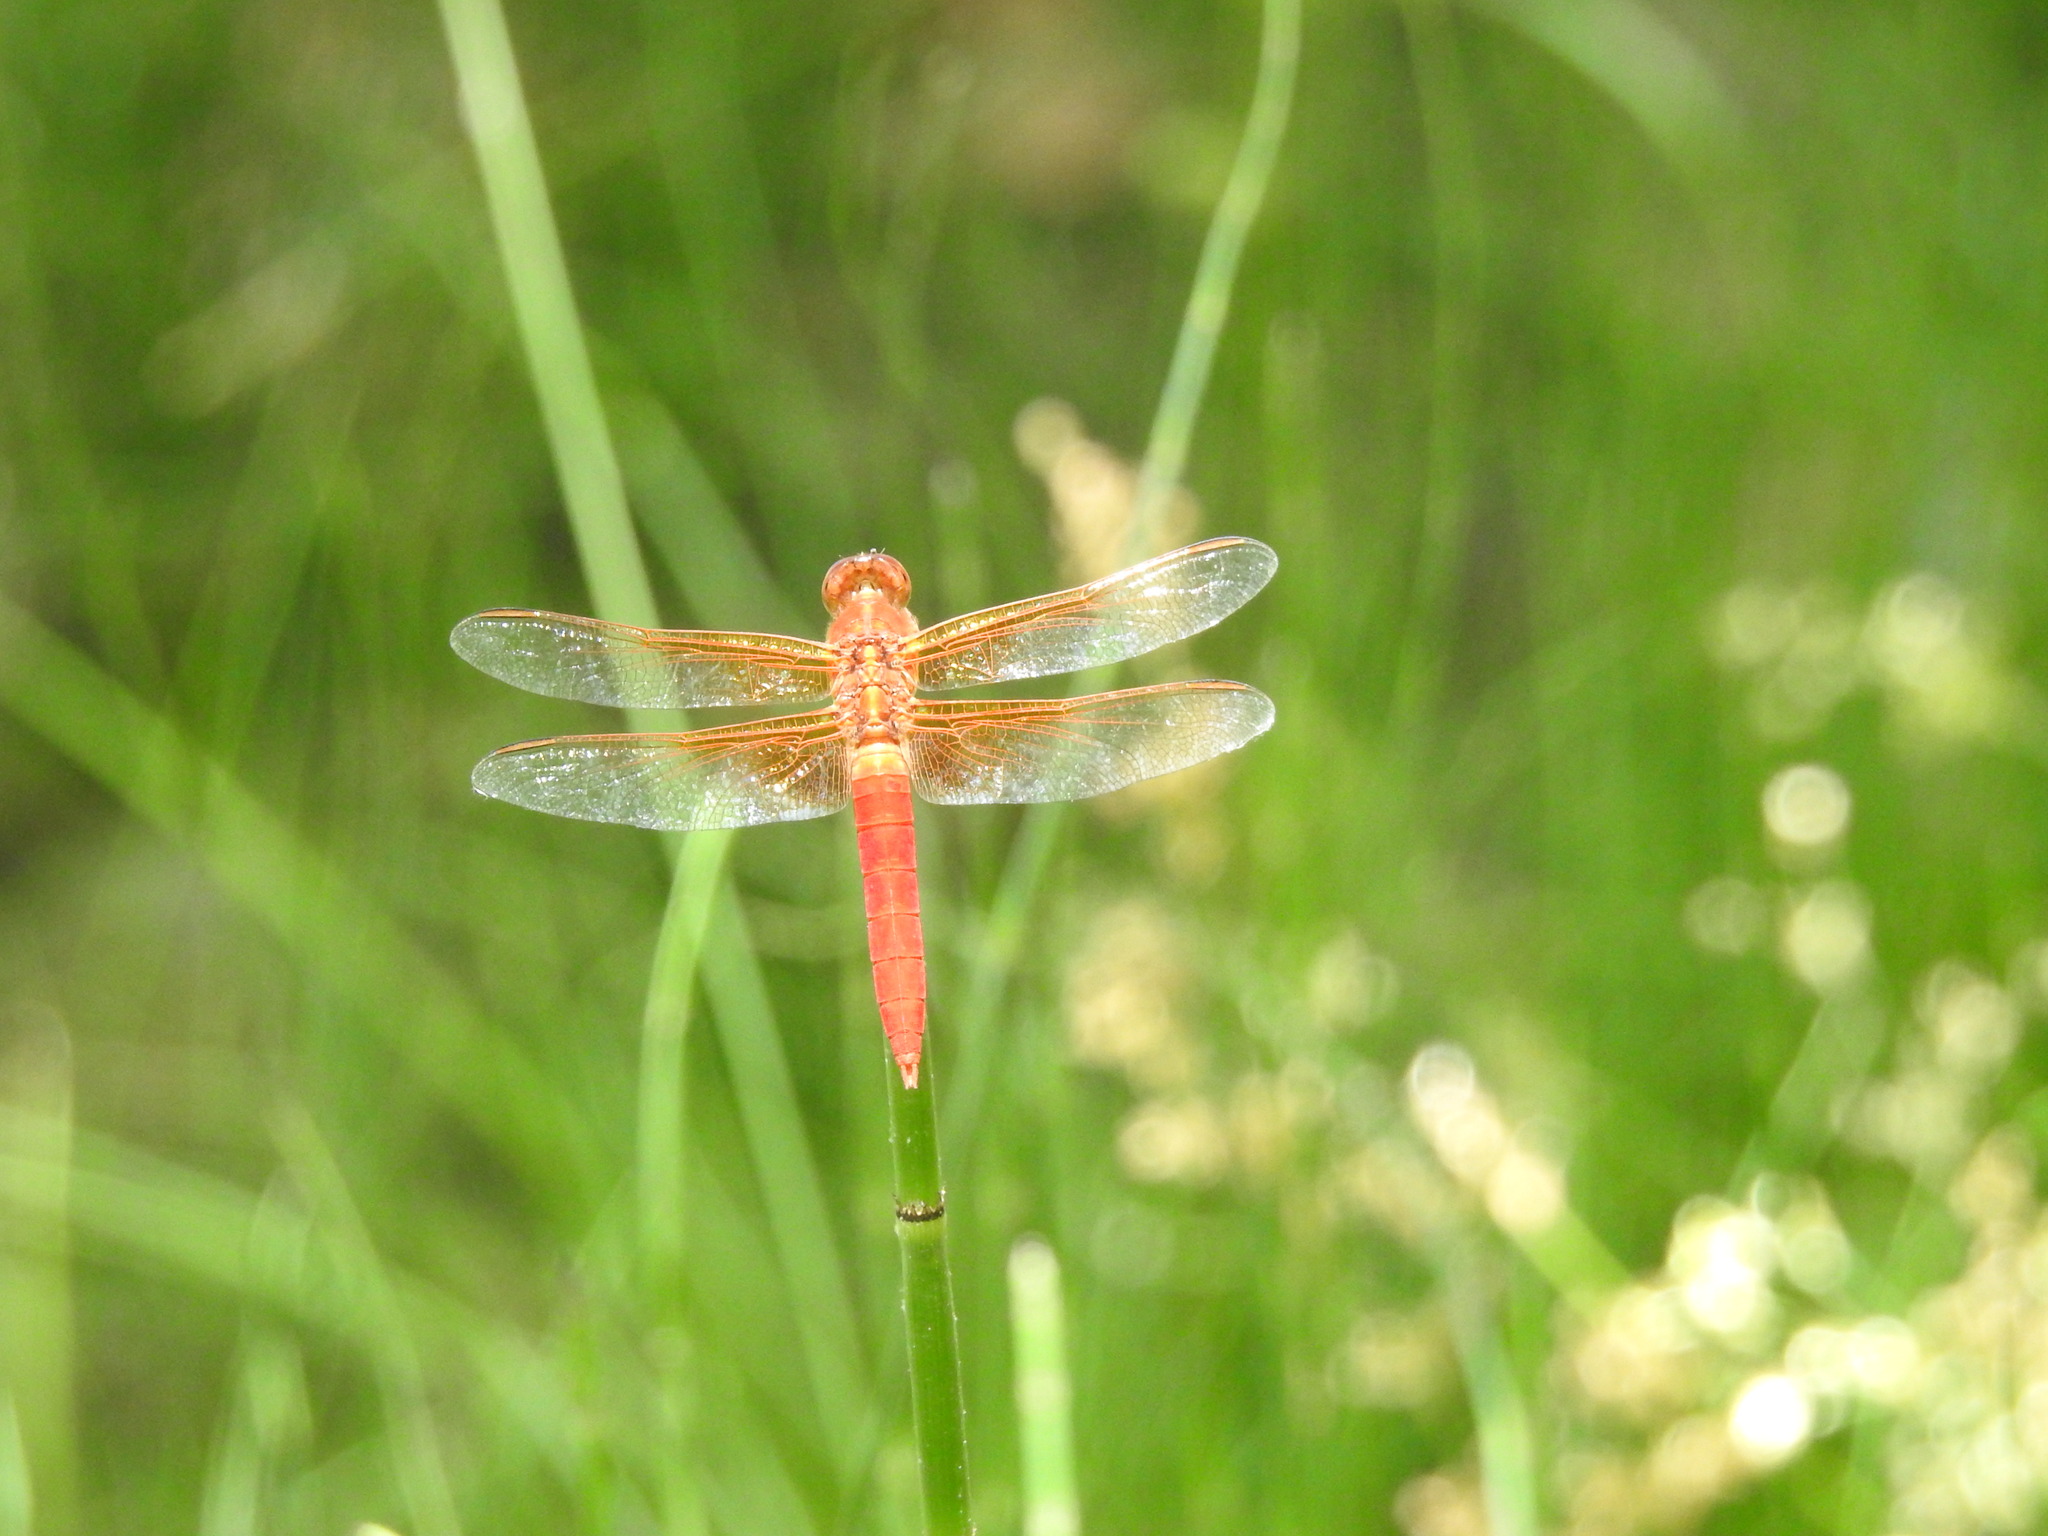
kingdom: Animalia
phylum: Arthropoda
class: Insecta
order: Odonata
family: Libellulidae
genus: Libellula
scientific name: Libellula croceipennis
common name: Neon skimmer
